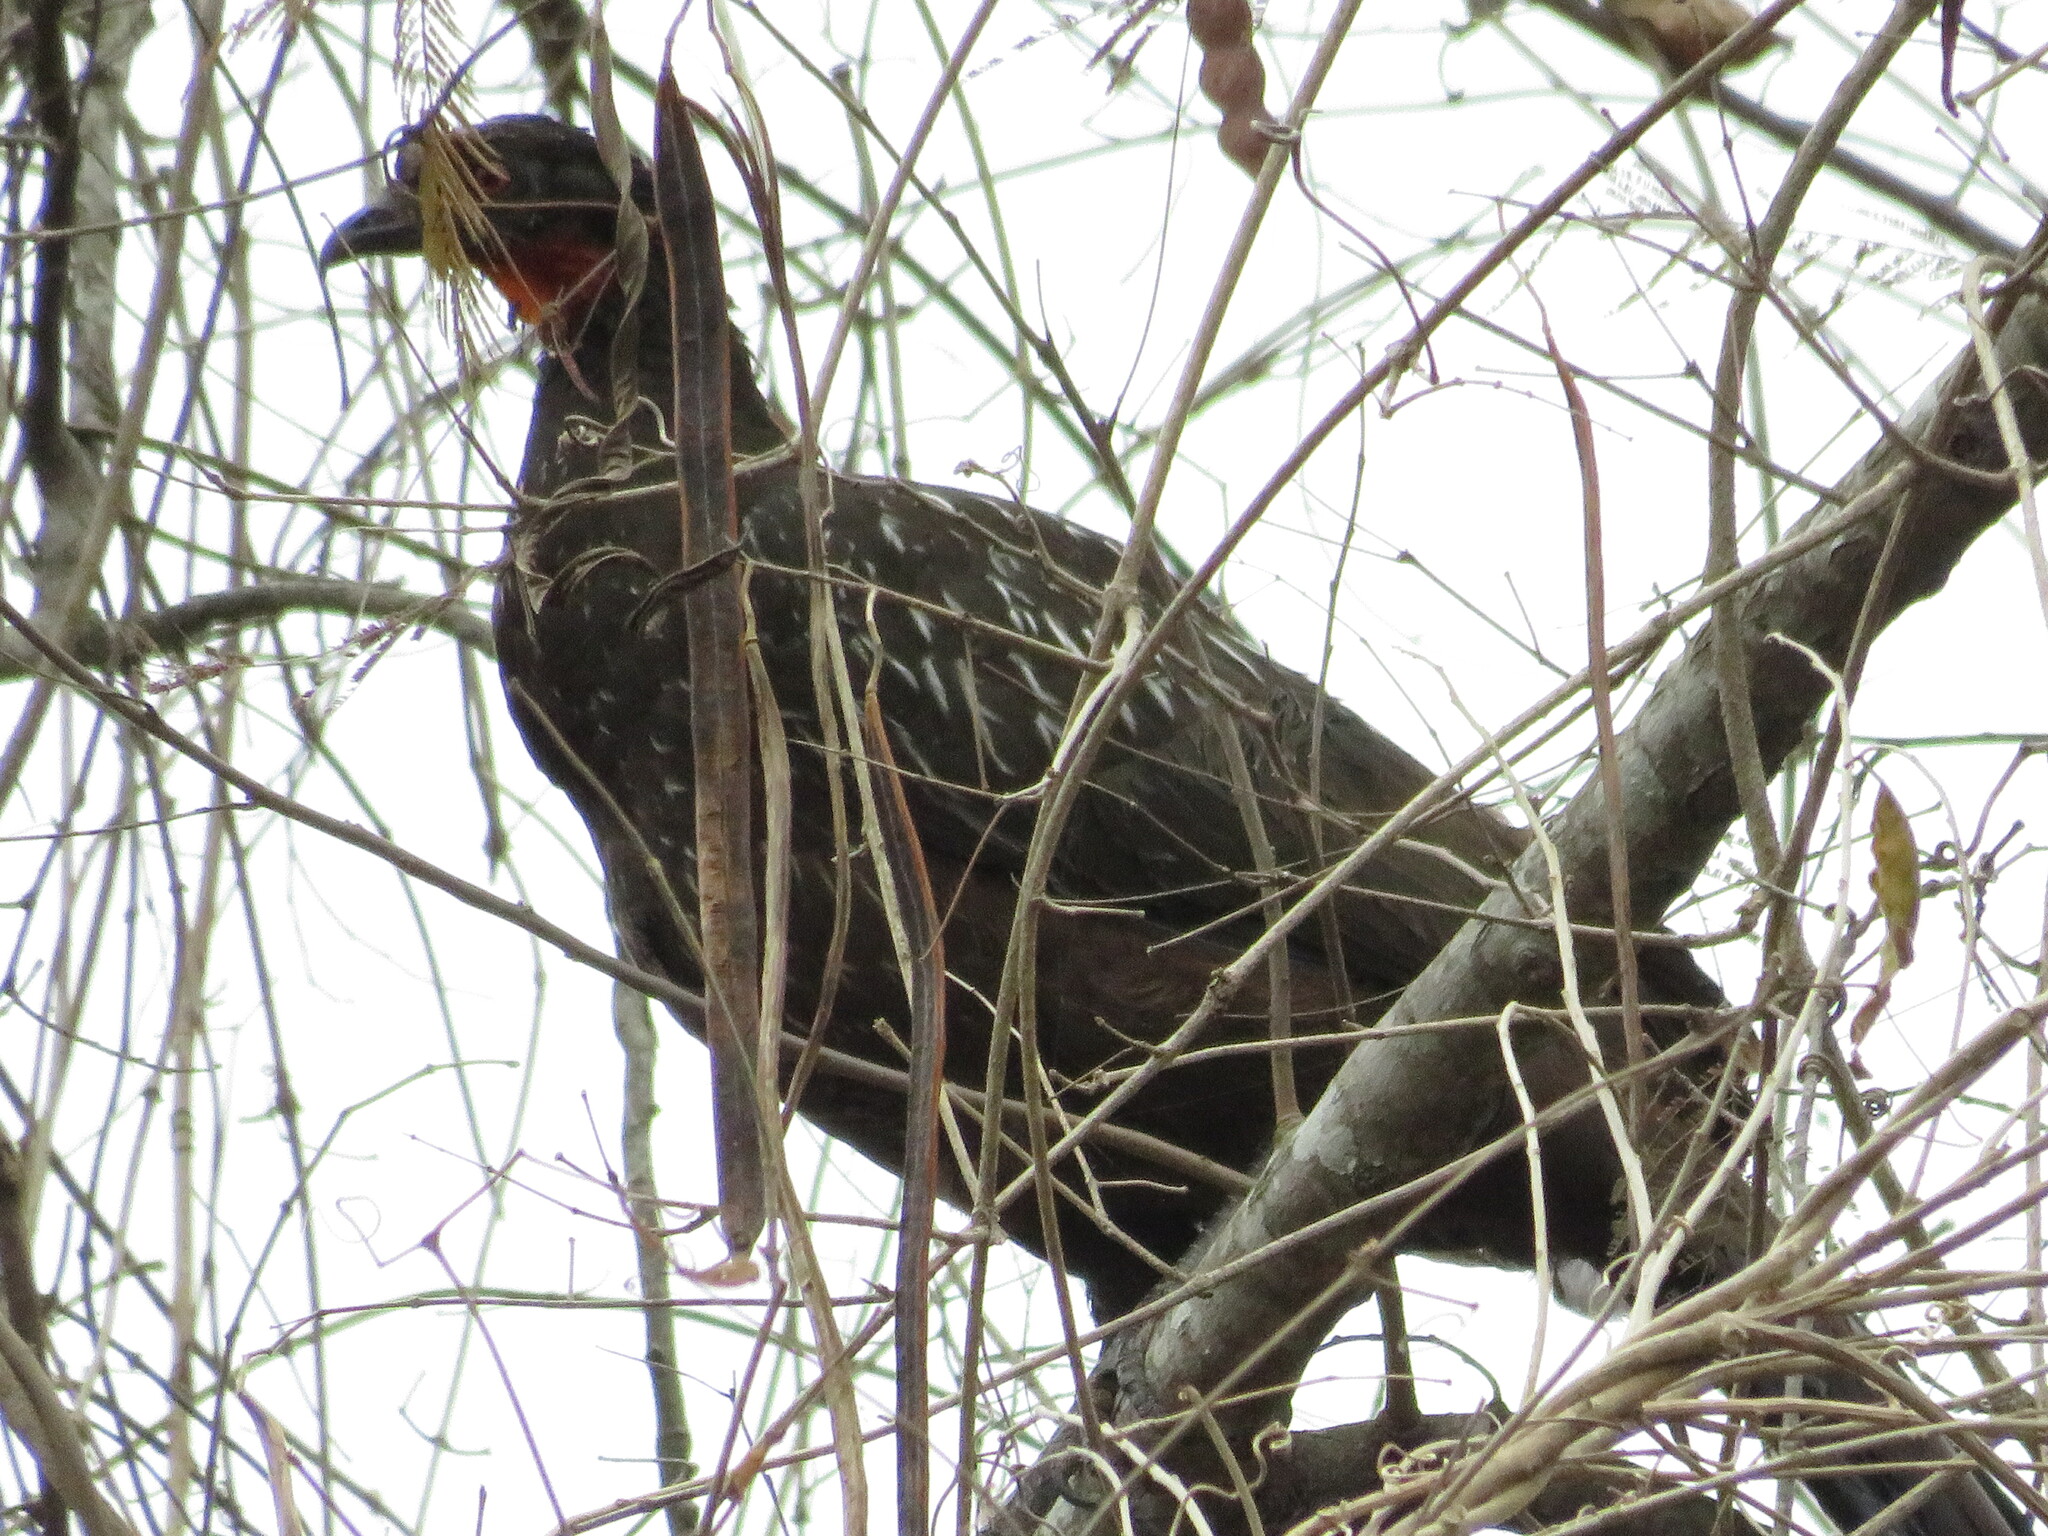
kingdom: Animalia
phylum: Chordata
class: Aves
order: Galliformes
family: Cracidae
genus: Penelope
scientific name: Penelope bridgesi
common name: Yungas guan
